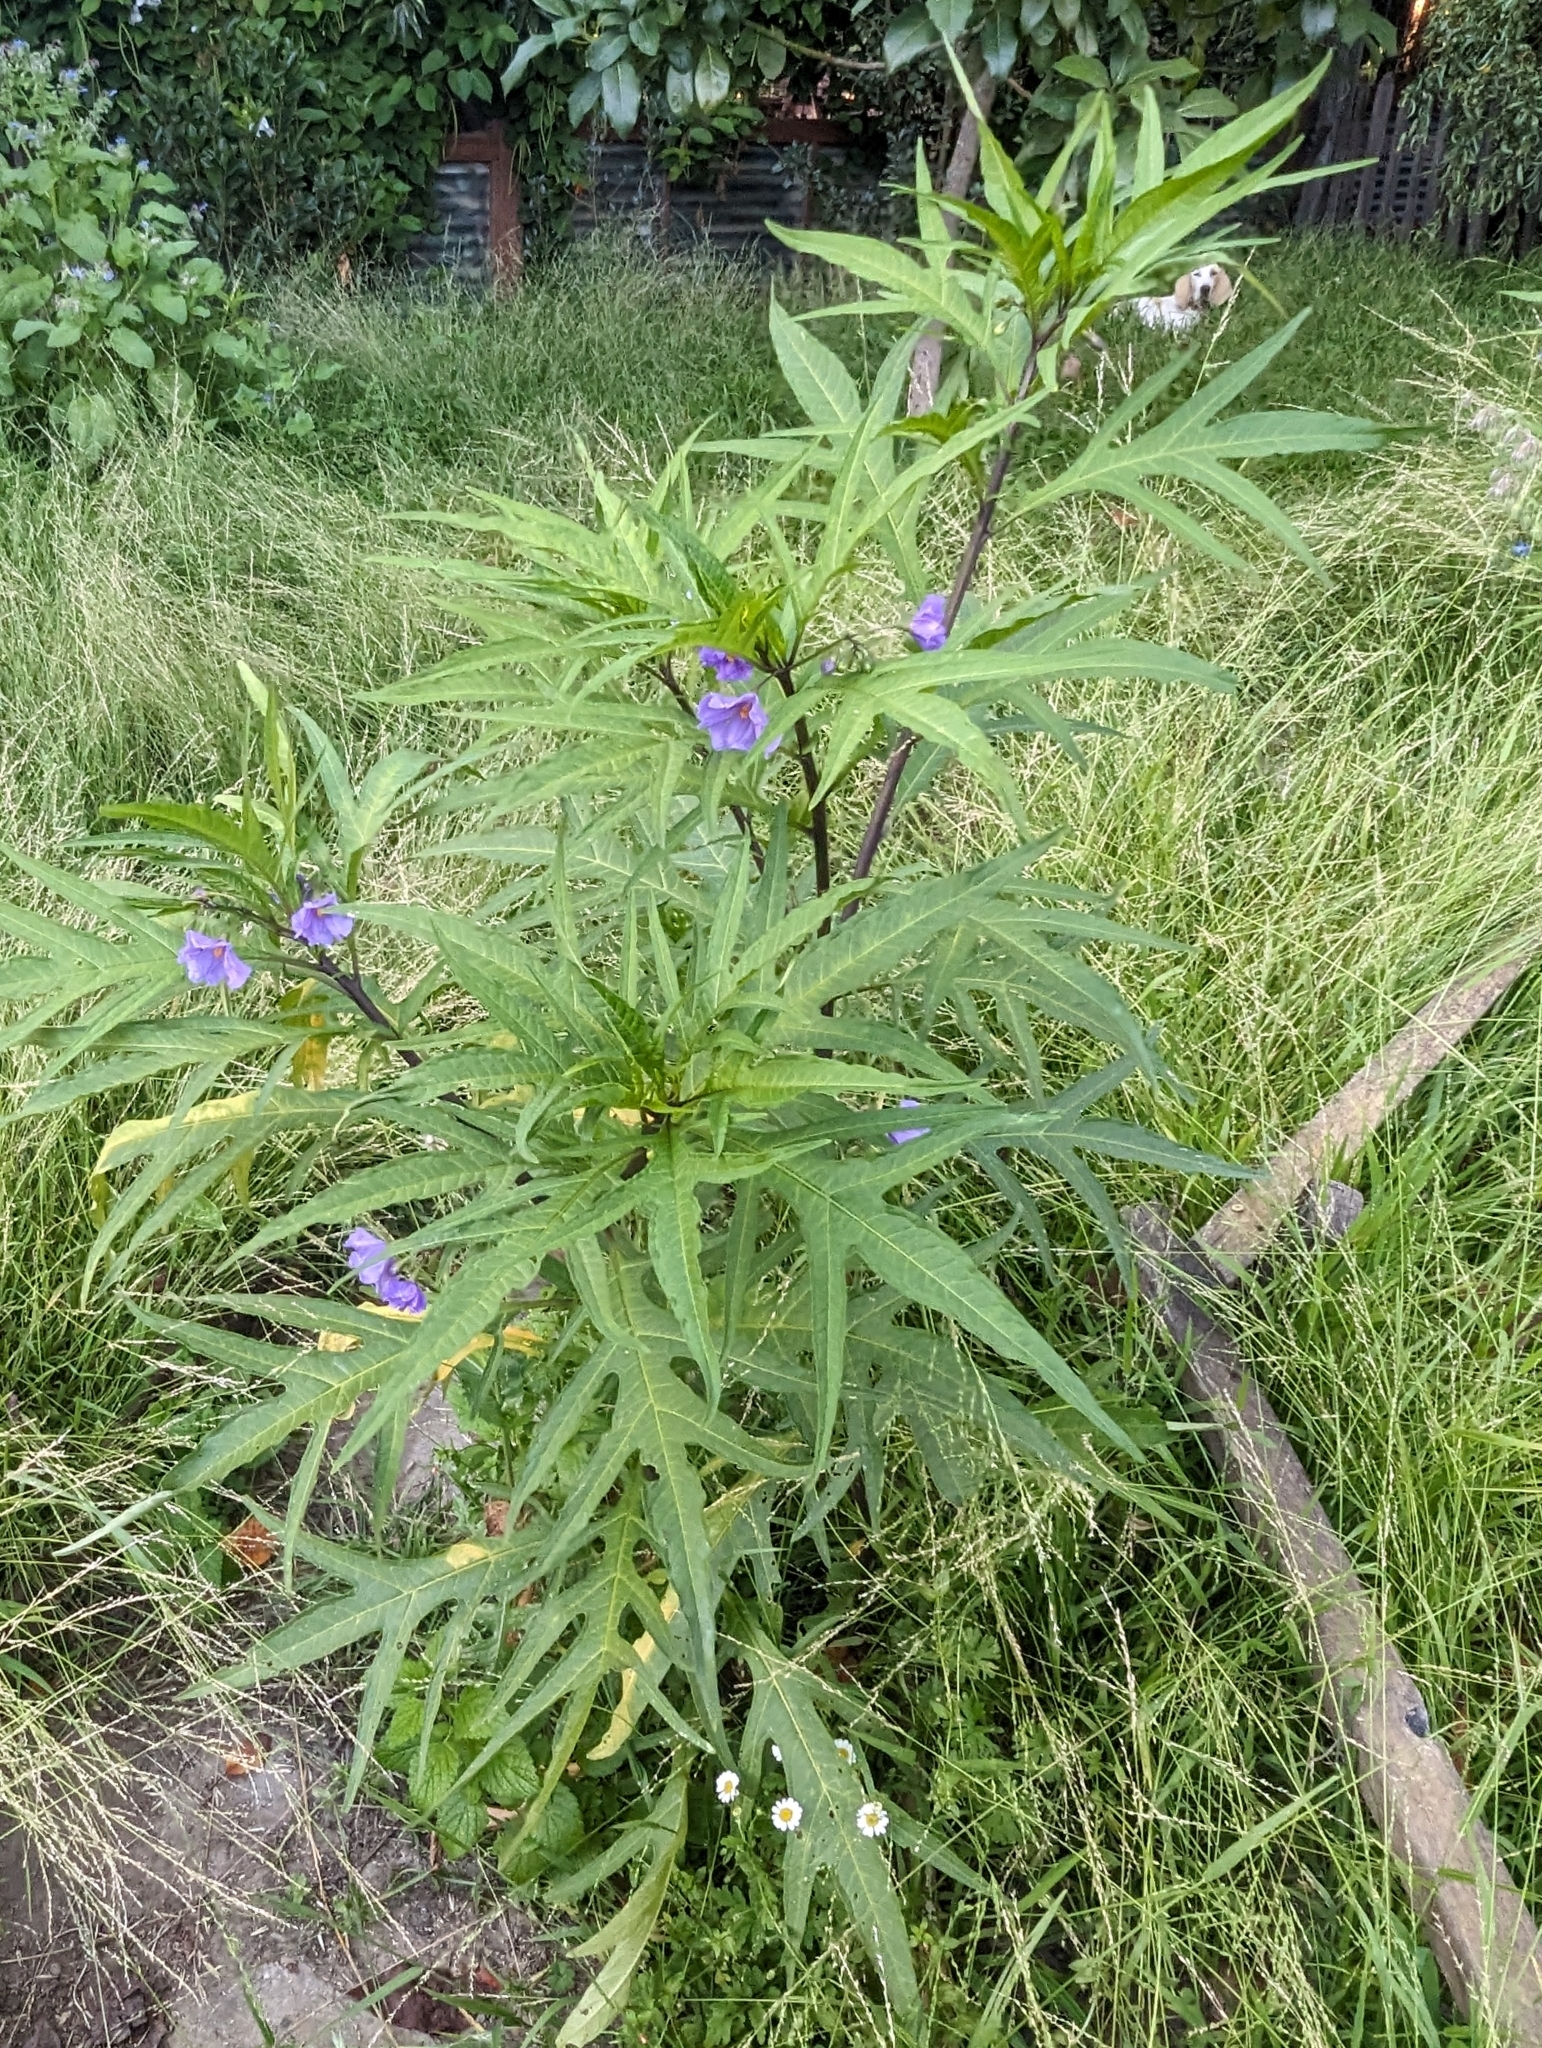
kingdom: Plantae
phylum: Tracheophyta
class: Magnoliopsida
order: Solanales
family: Solanaceae
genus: Solanum
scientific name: Solanum laciniatum
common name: Kangaroo-apple
